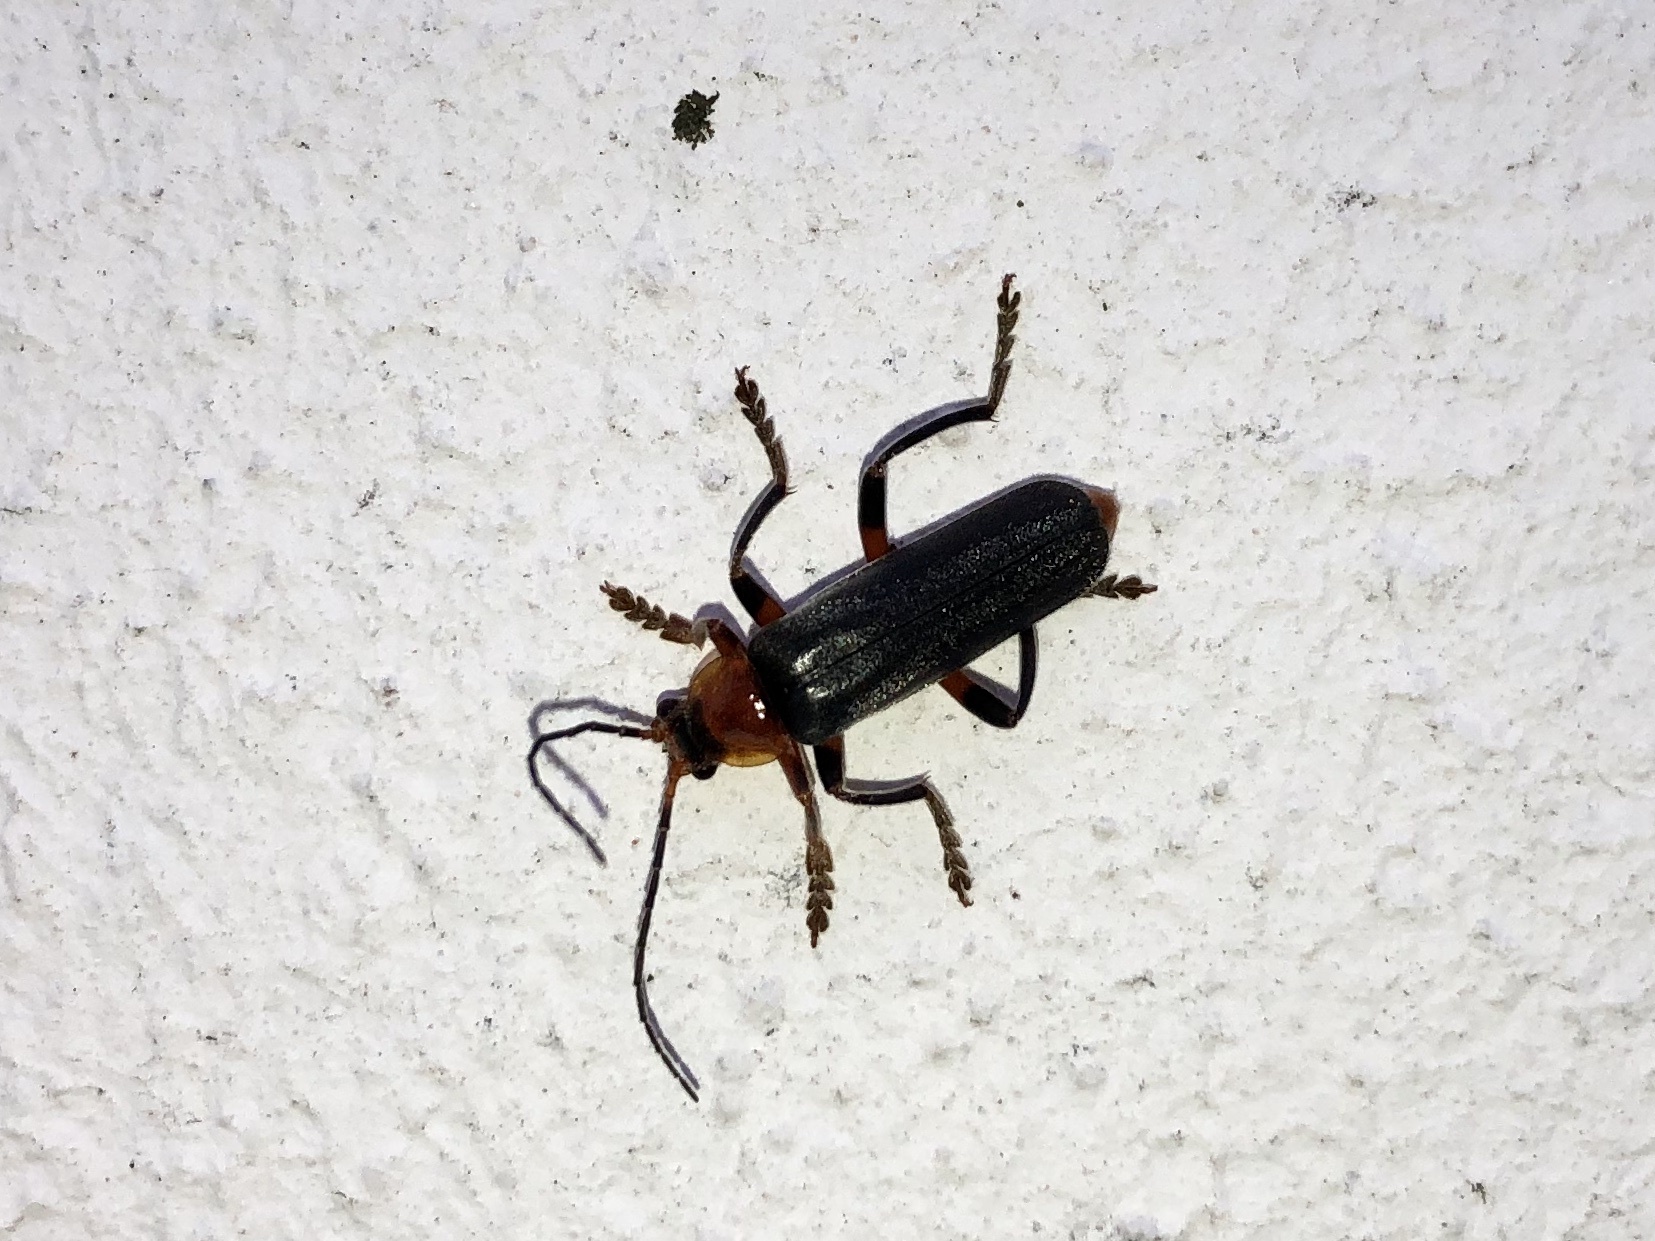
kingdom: Animalia
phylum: Arthropoda
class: Insecta
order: Coleoptera
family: Cantharidae
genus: Cantharis
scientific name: Cantharis livida
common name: Livid soldier beetle
